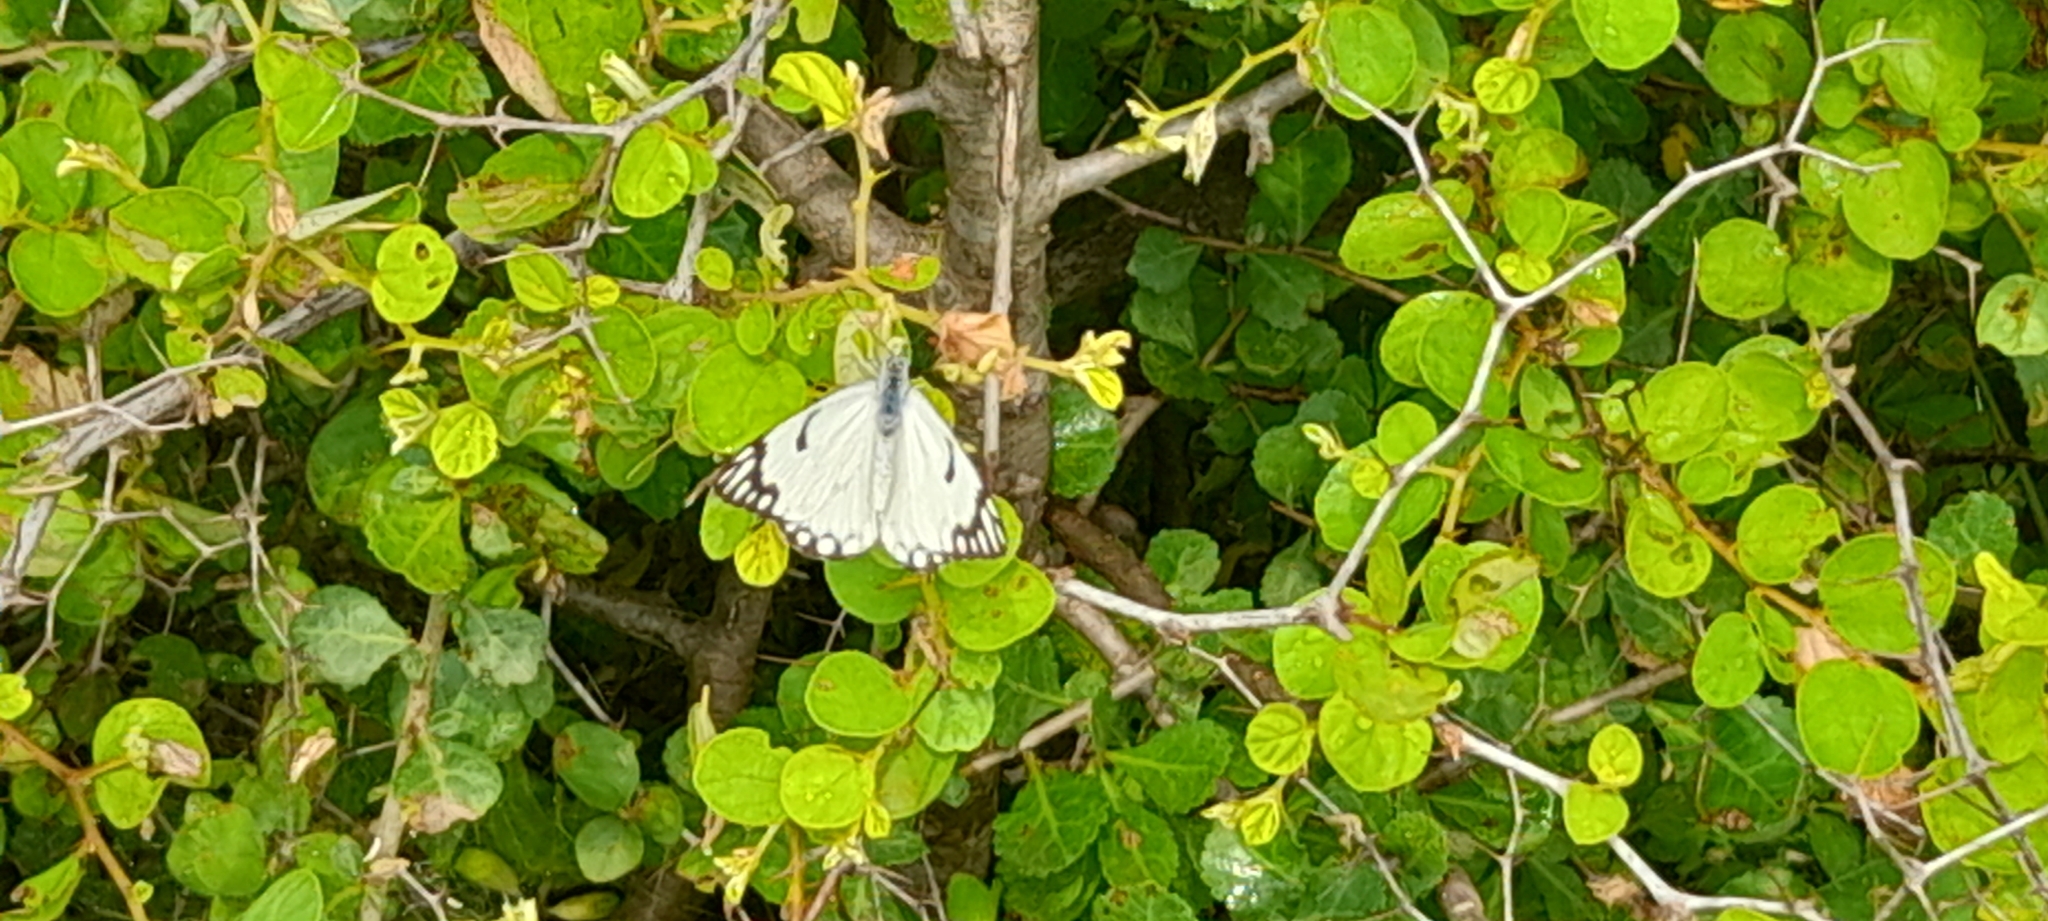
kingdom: Animalia
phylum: Arthropoda
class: Insecta
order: Lepidoptera
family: Pieridae
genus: Belenois
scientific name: Belenois aurota
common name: Brown-veined white
